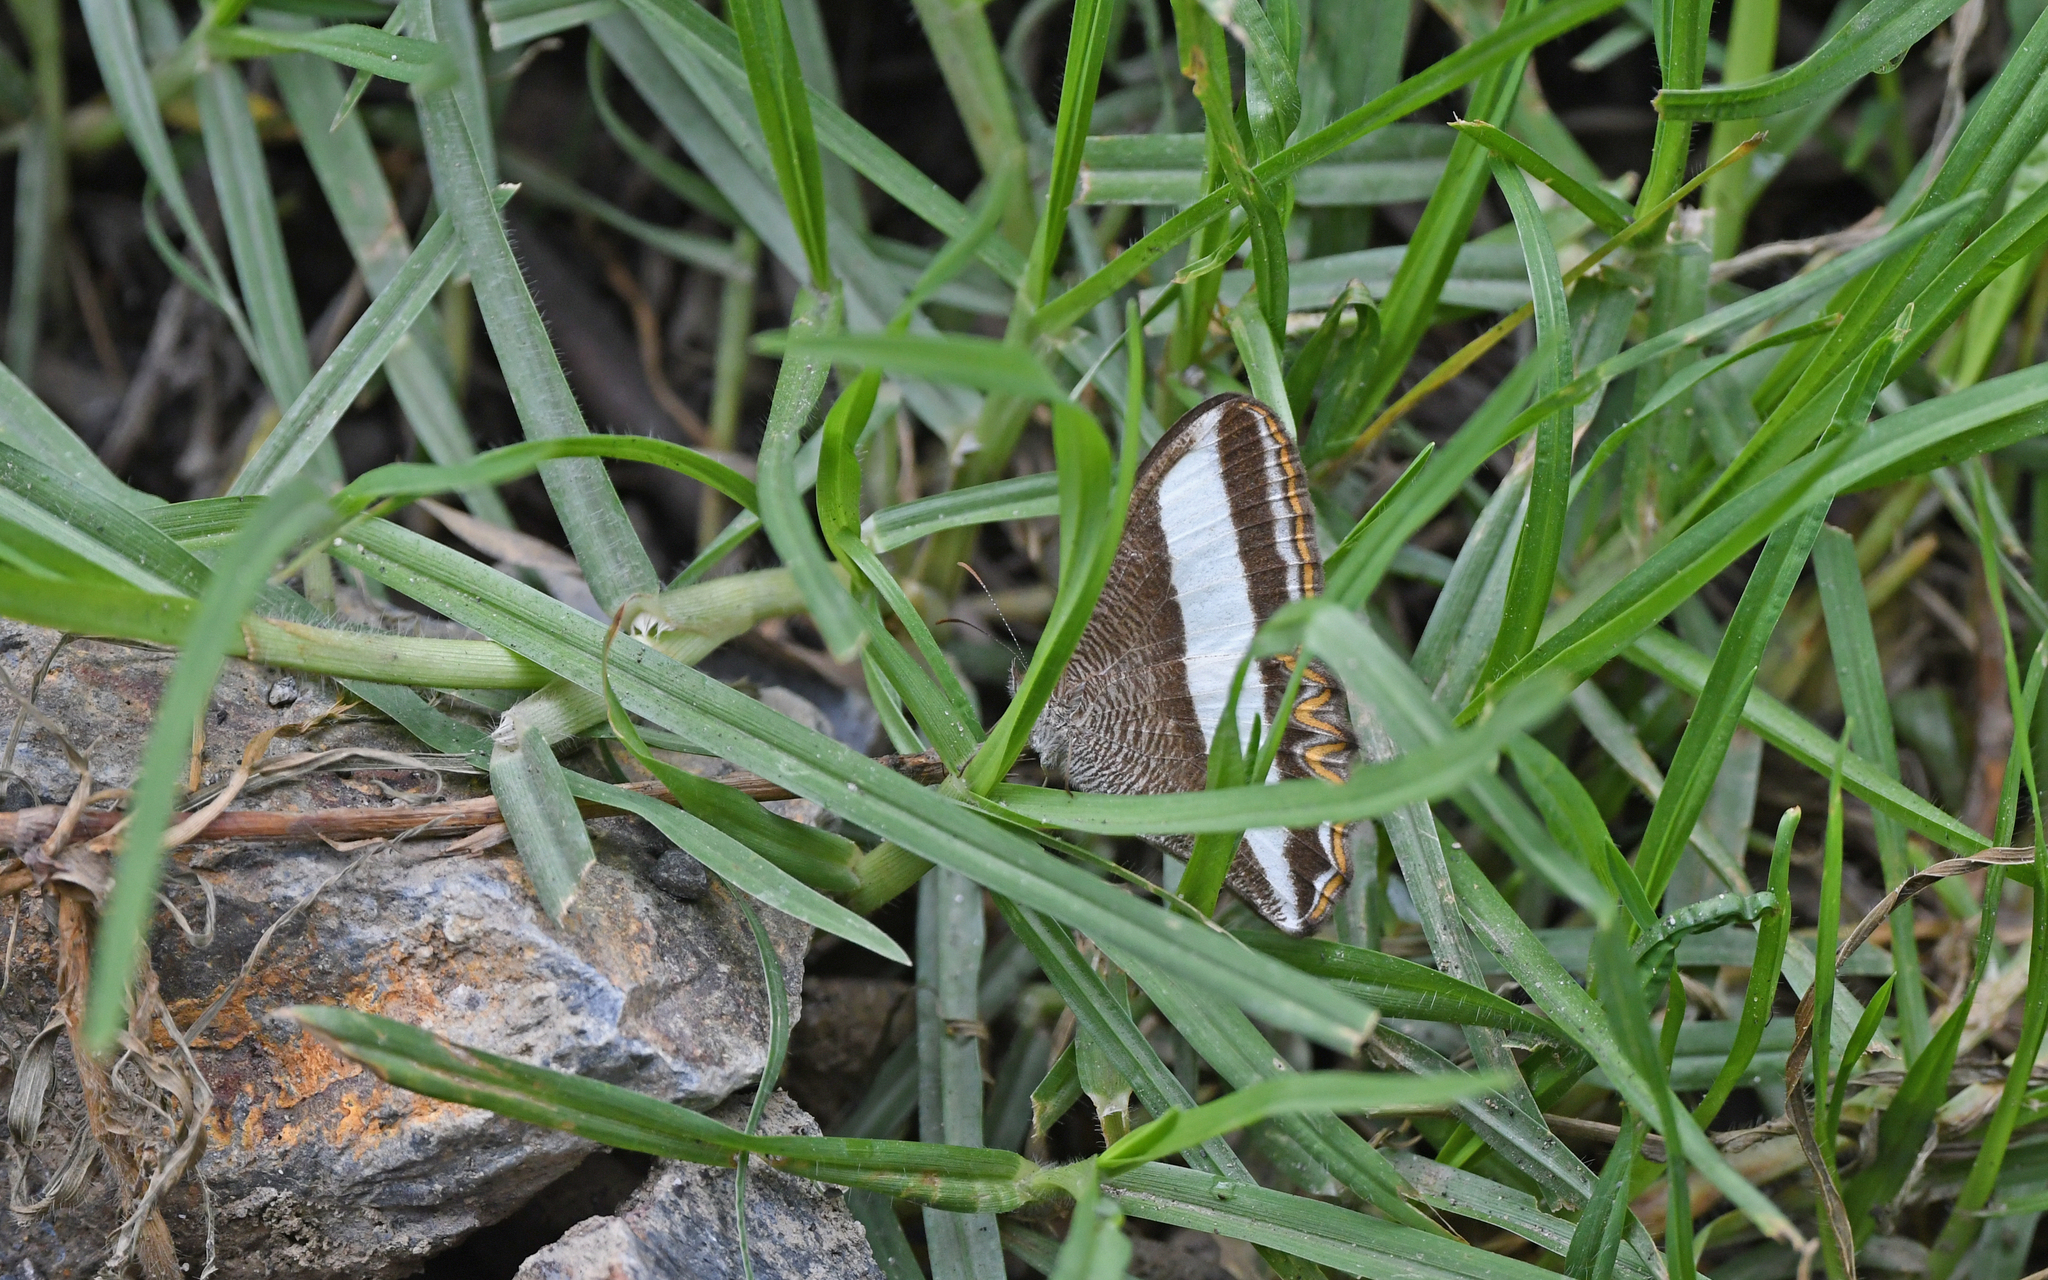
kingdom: Animalia
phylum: Arthropoda
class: Insecta
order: Lepidoptera
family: Nymphalidae
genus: Oressinoma
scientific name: Oressinoma typhla
